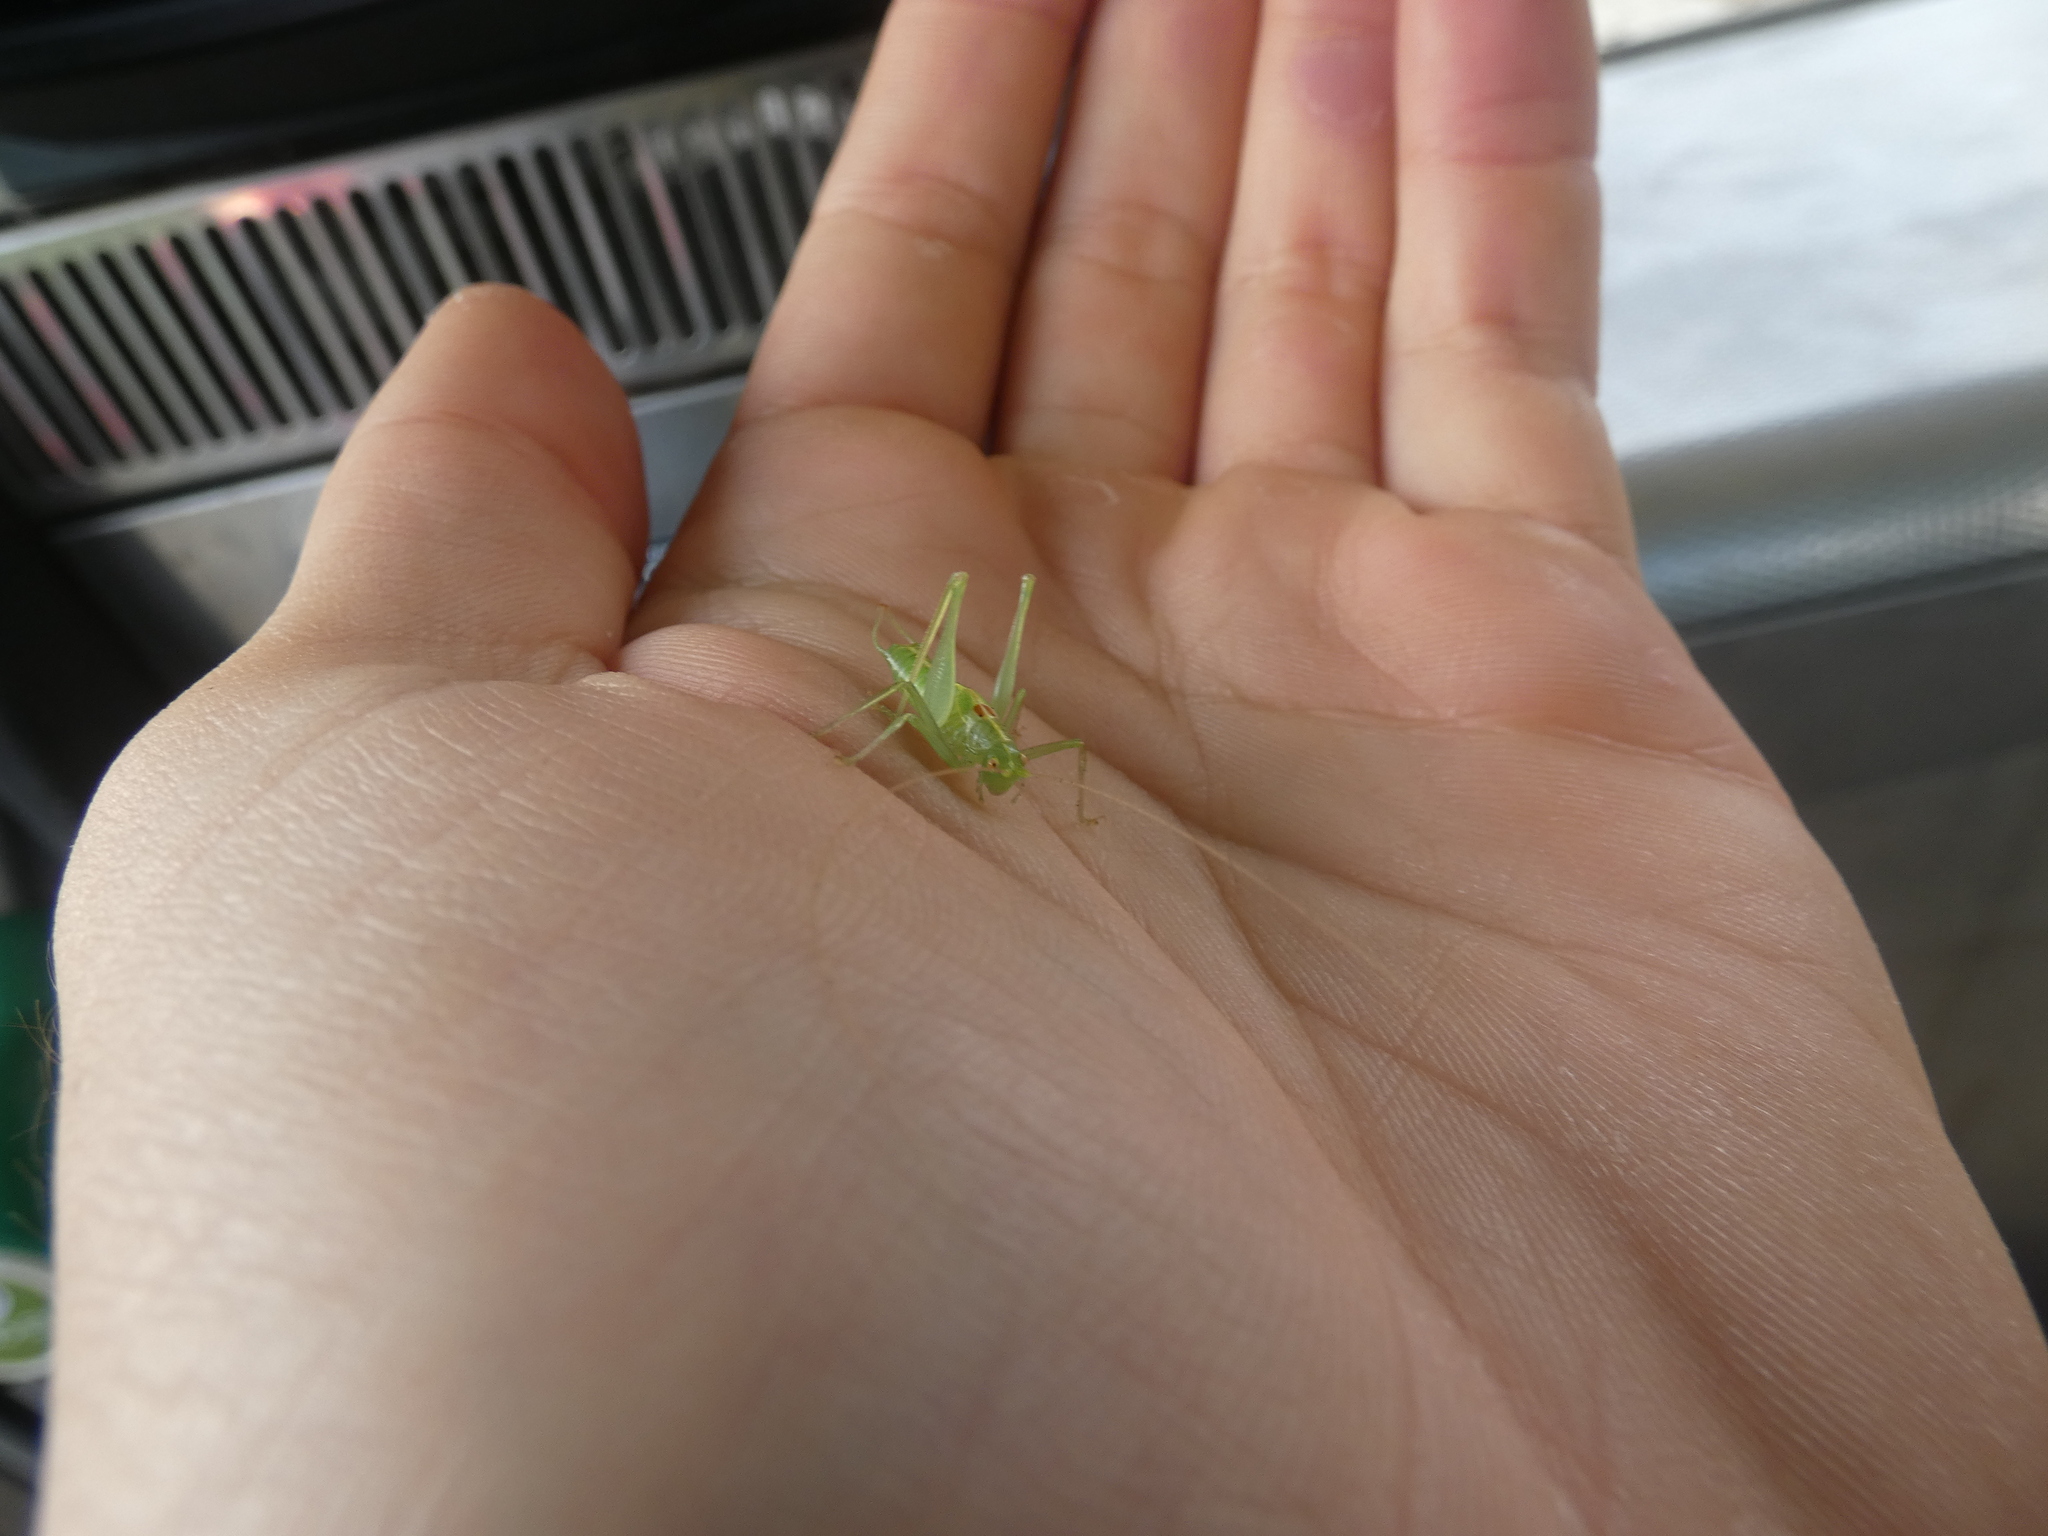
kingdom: Animalia
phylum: Arthropoda
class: Insecta
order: Orthoptera
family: Tettigoniidae
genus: Meconema
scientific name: Meconema meridionale
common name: Southern oak bush-cricket
